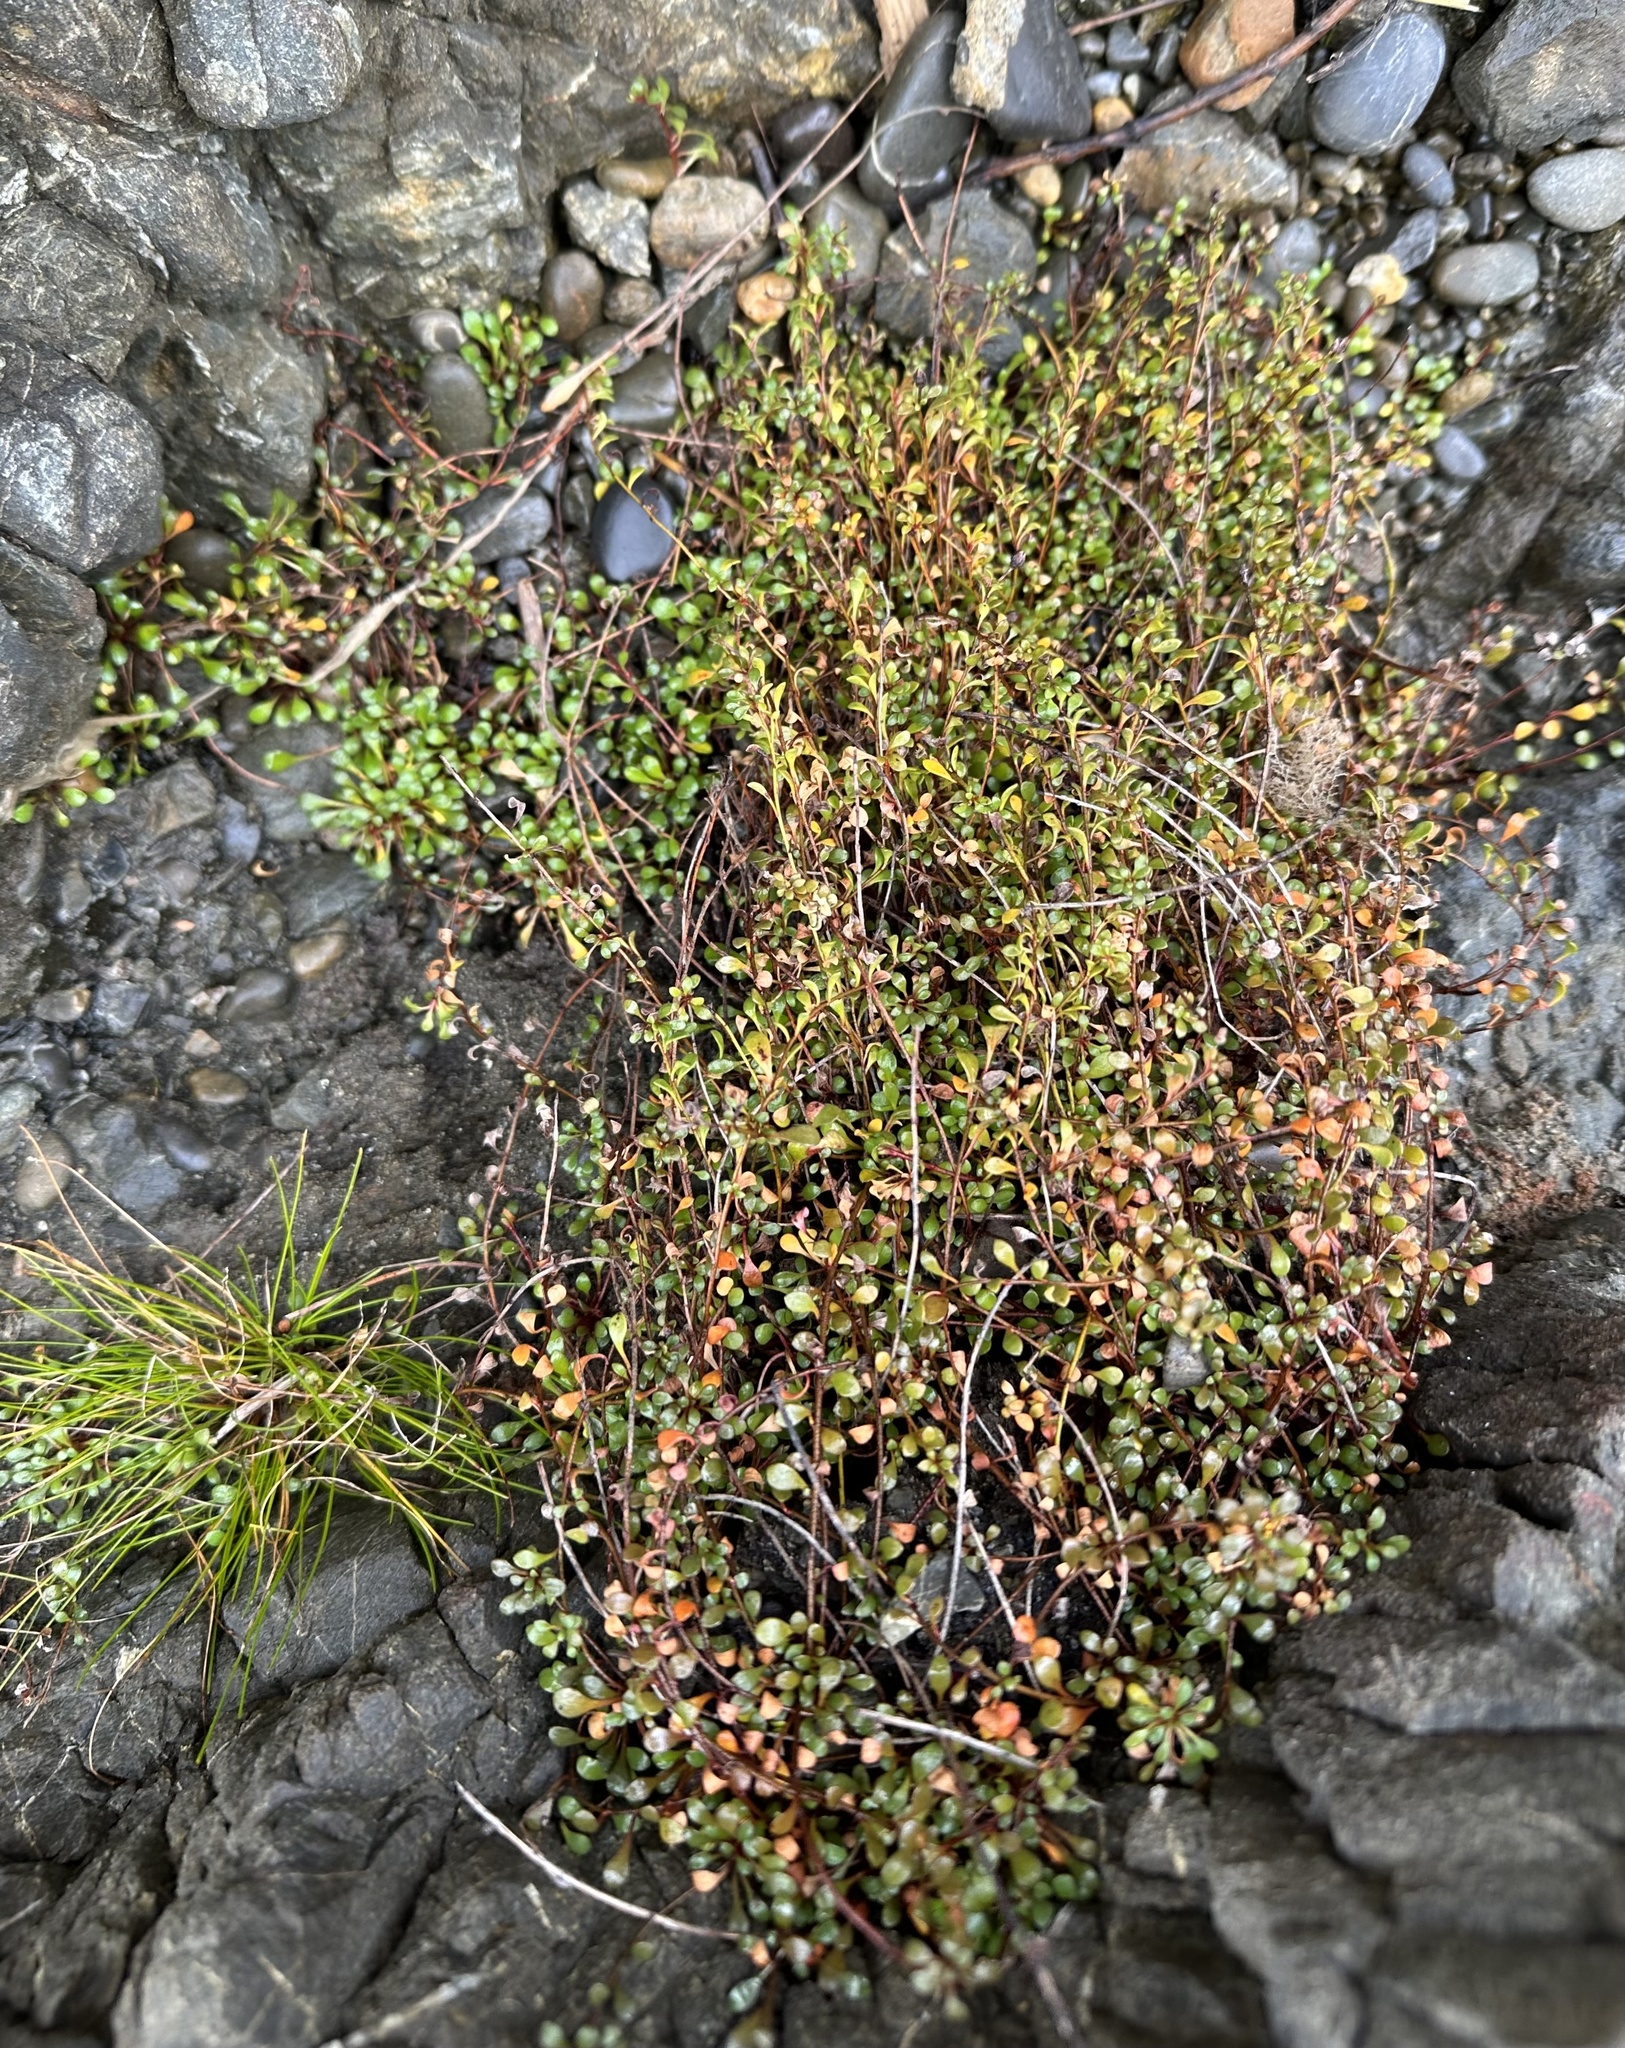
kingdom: Plantae
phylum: Tracheophyta
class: Magnoliopsida
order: Ericales
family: Primulaceae
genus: Samolus
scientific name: Samolus repens
